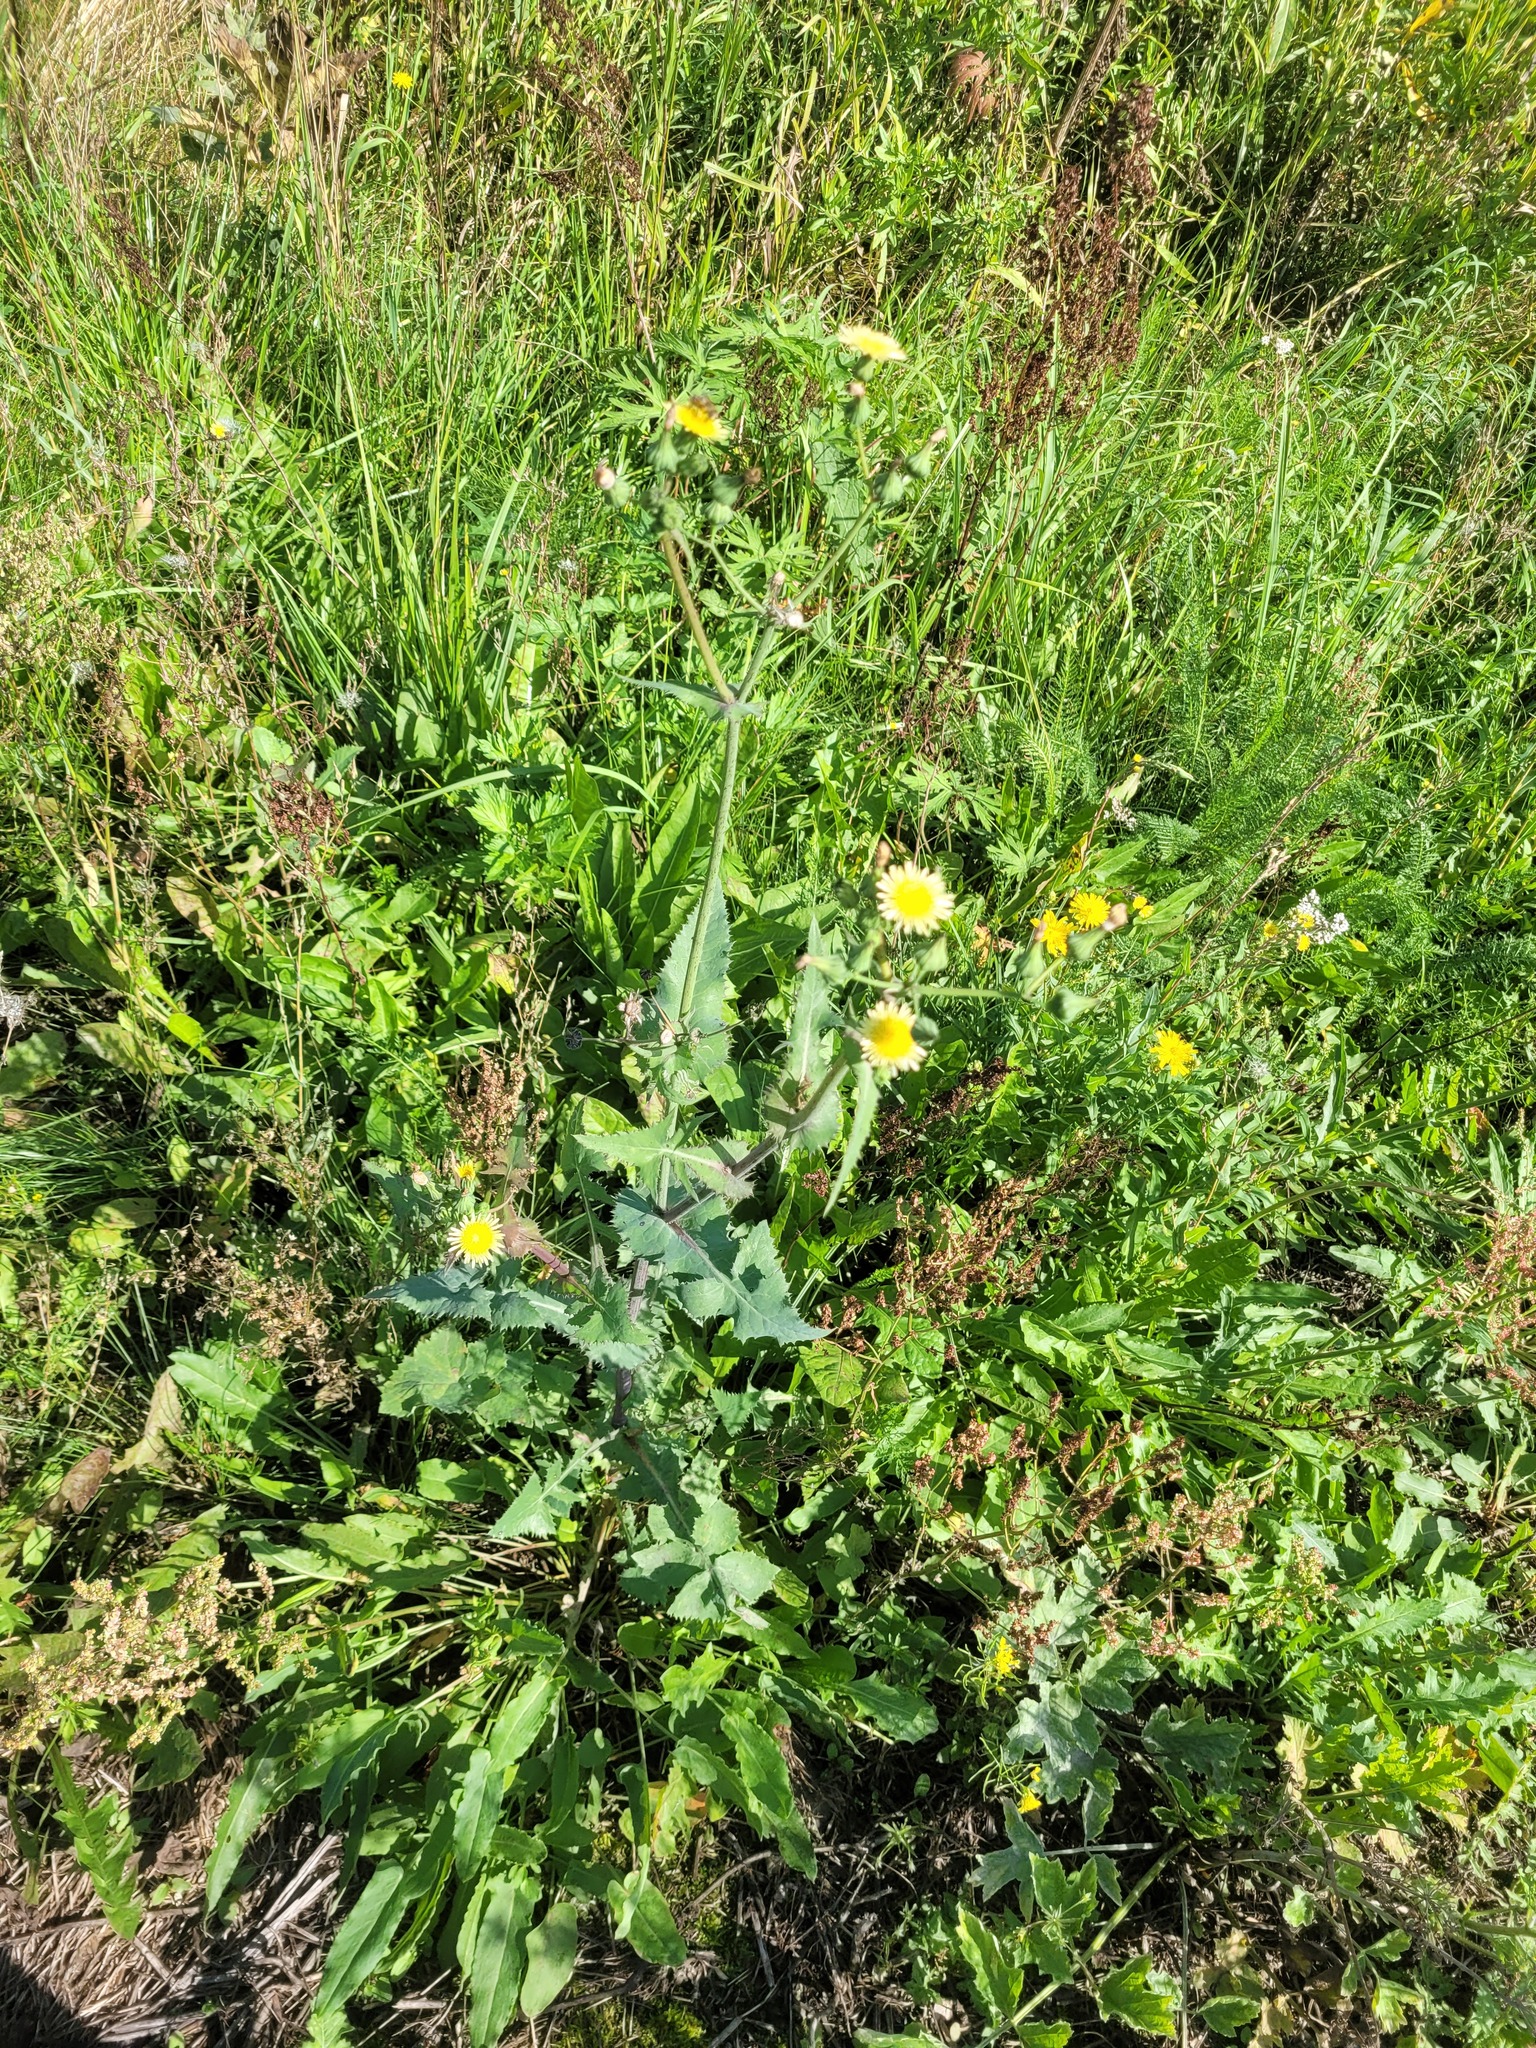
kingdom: Plantae
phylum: Tracheophyta
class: Magnoliopsida
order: Asterales
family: Asteraceae
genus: Sonchus
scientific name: Sonchus oleraceus
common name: Common sowthistle
